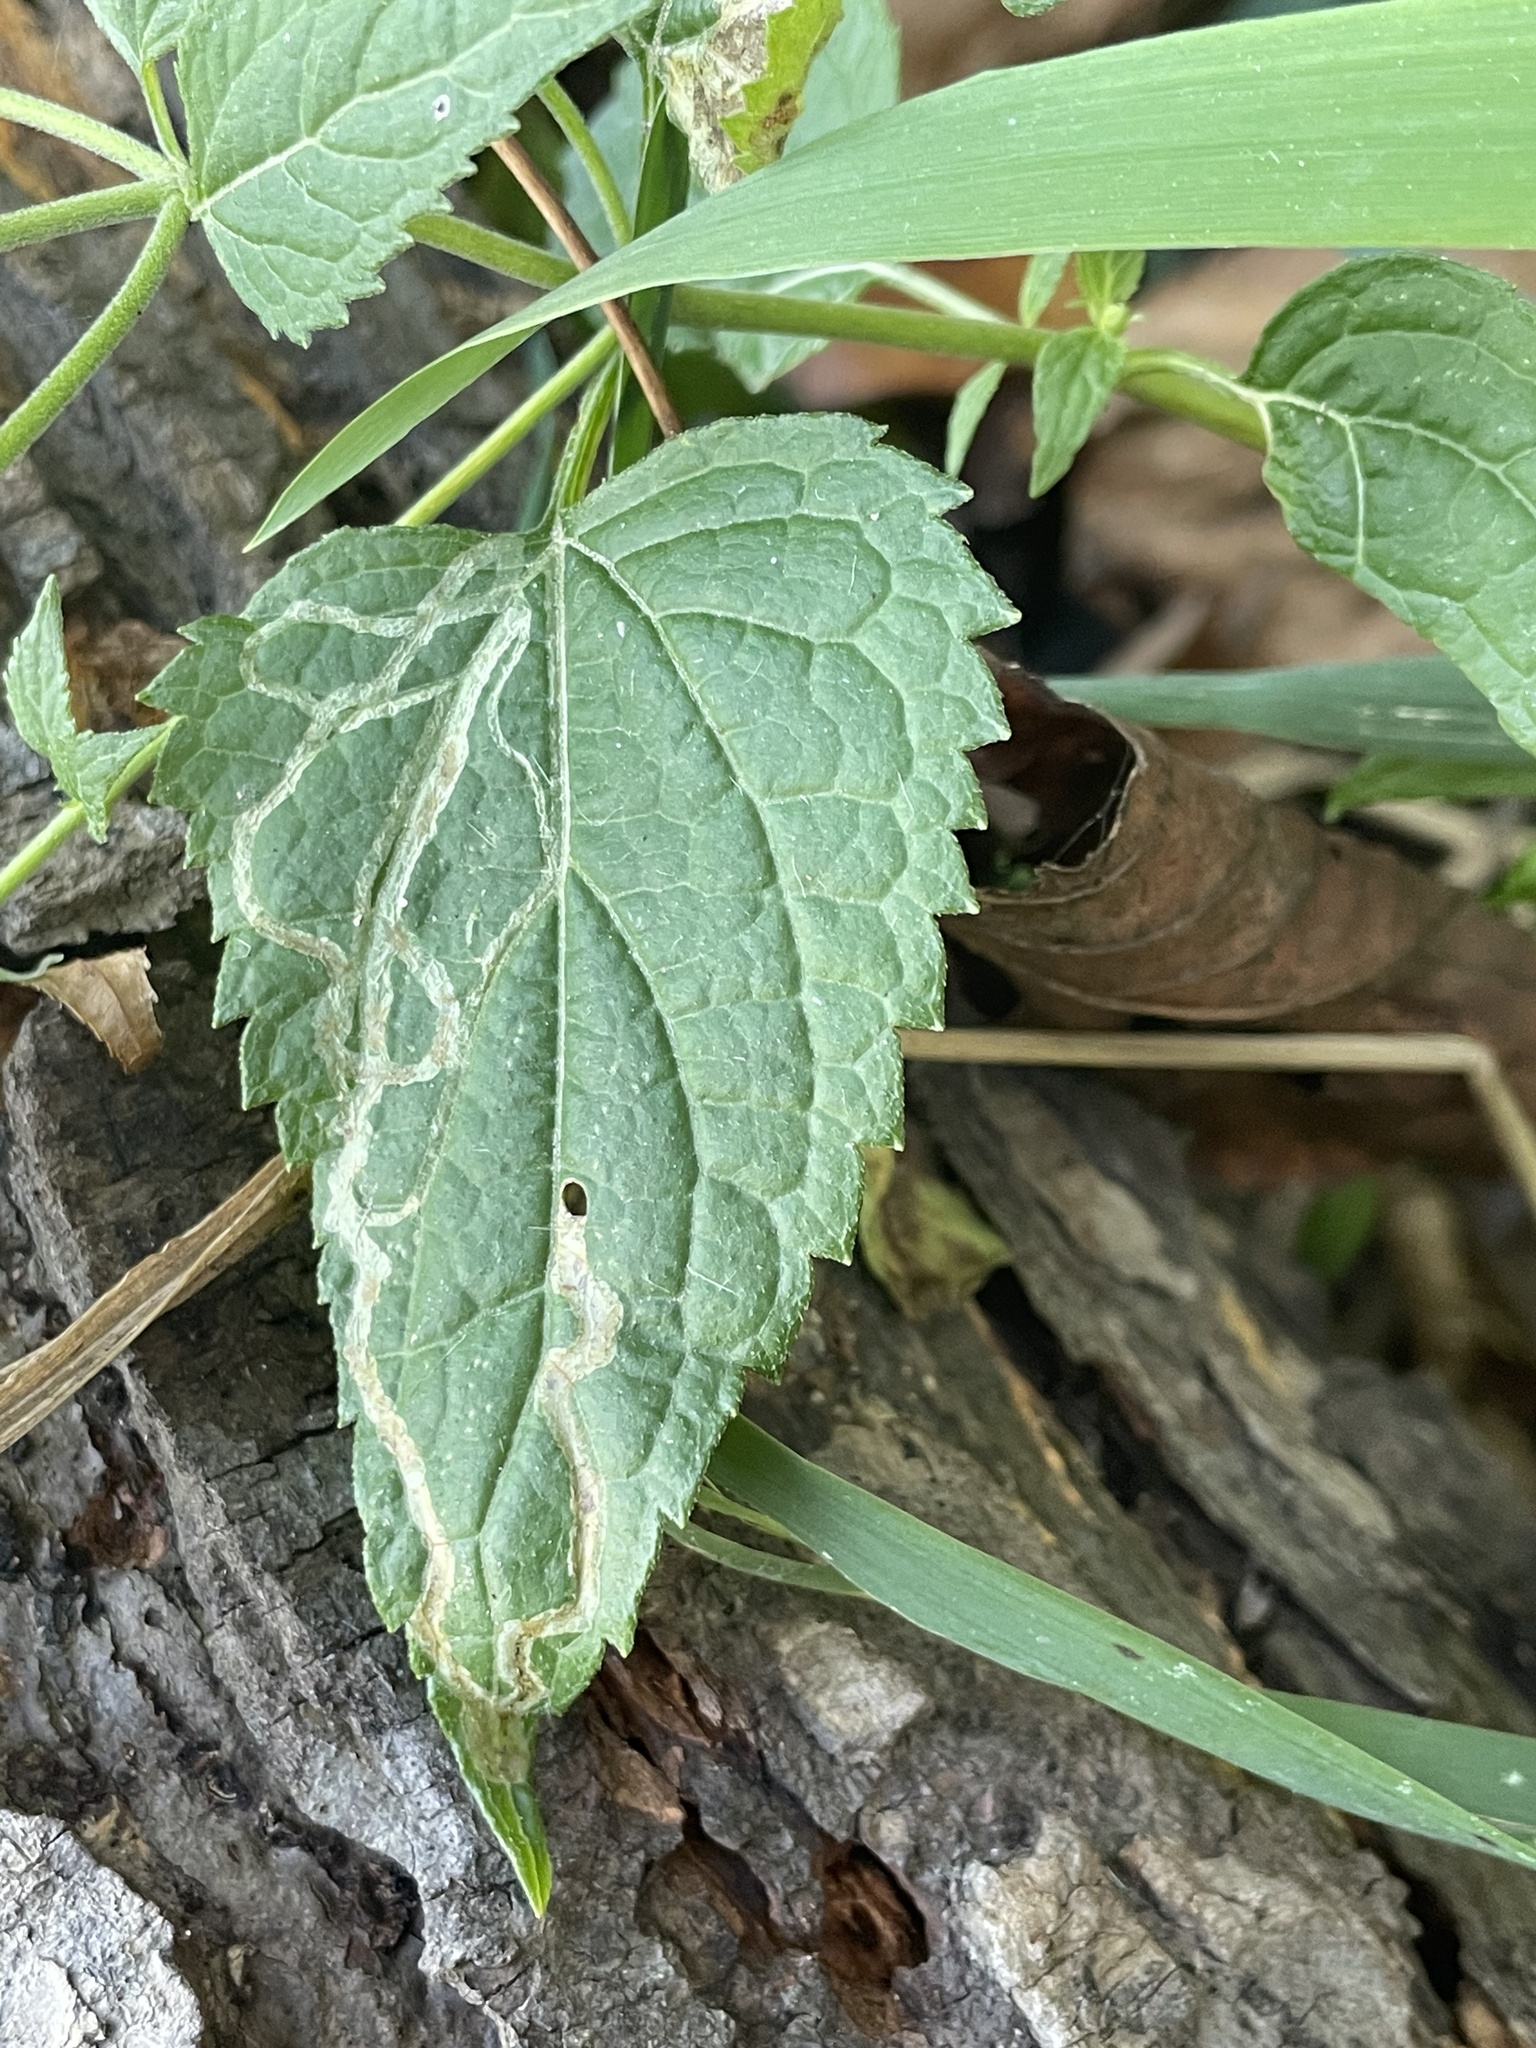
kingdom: Plantae
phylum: Tracheophyta
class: Magnoliopsida
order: Asterales
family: Asteraceae
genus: Ageratina
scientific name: Ageratina altissima
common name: White snakeroot
